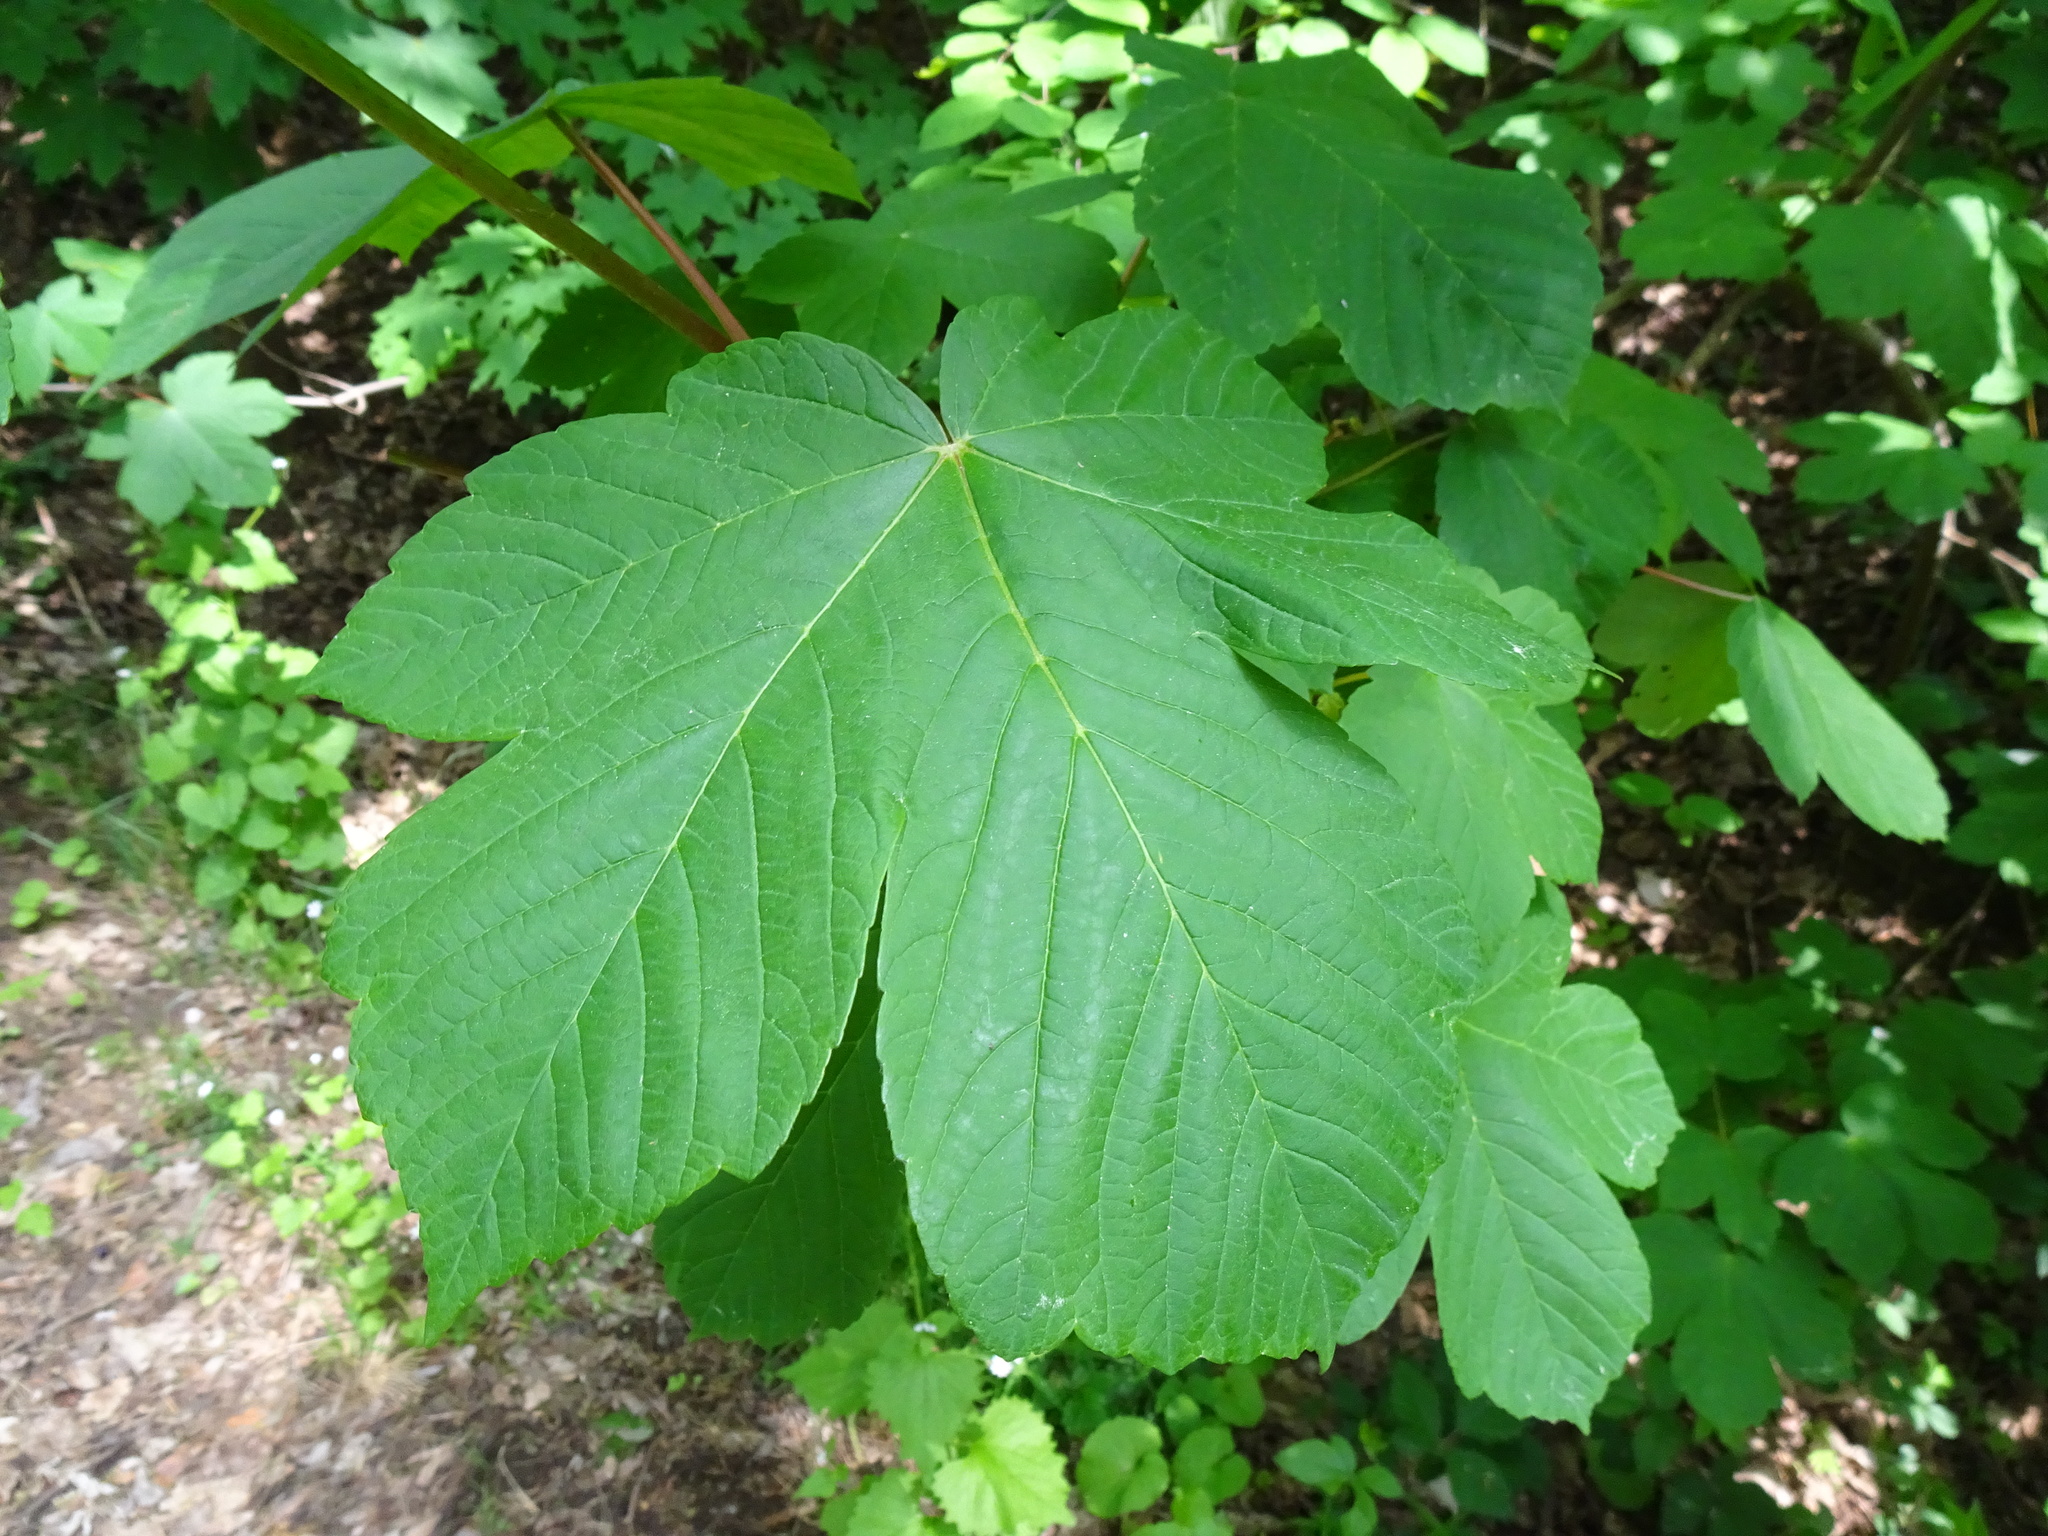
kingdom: Plantae
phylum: Tracheophyta
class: Magnoliopsida
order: Sapindales
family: Sapindaceae
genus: Acer
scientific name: Acer pseudoplatanus
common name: Sycamore
